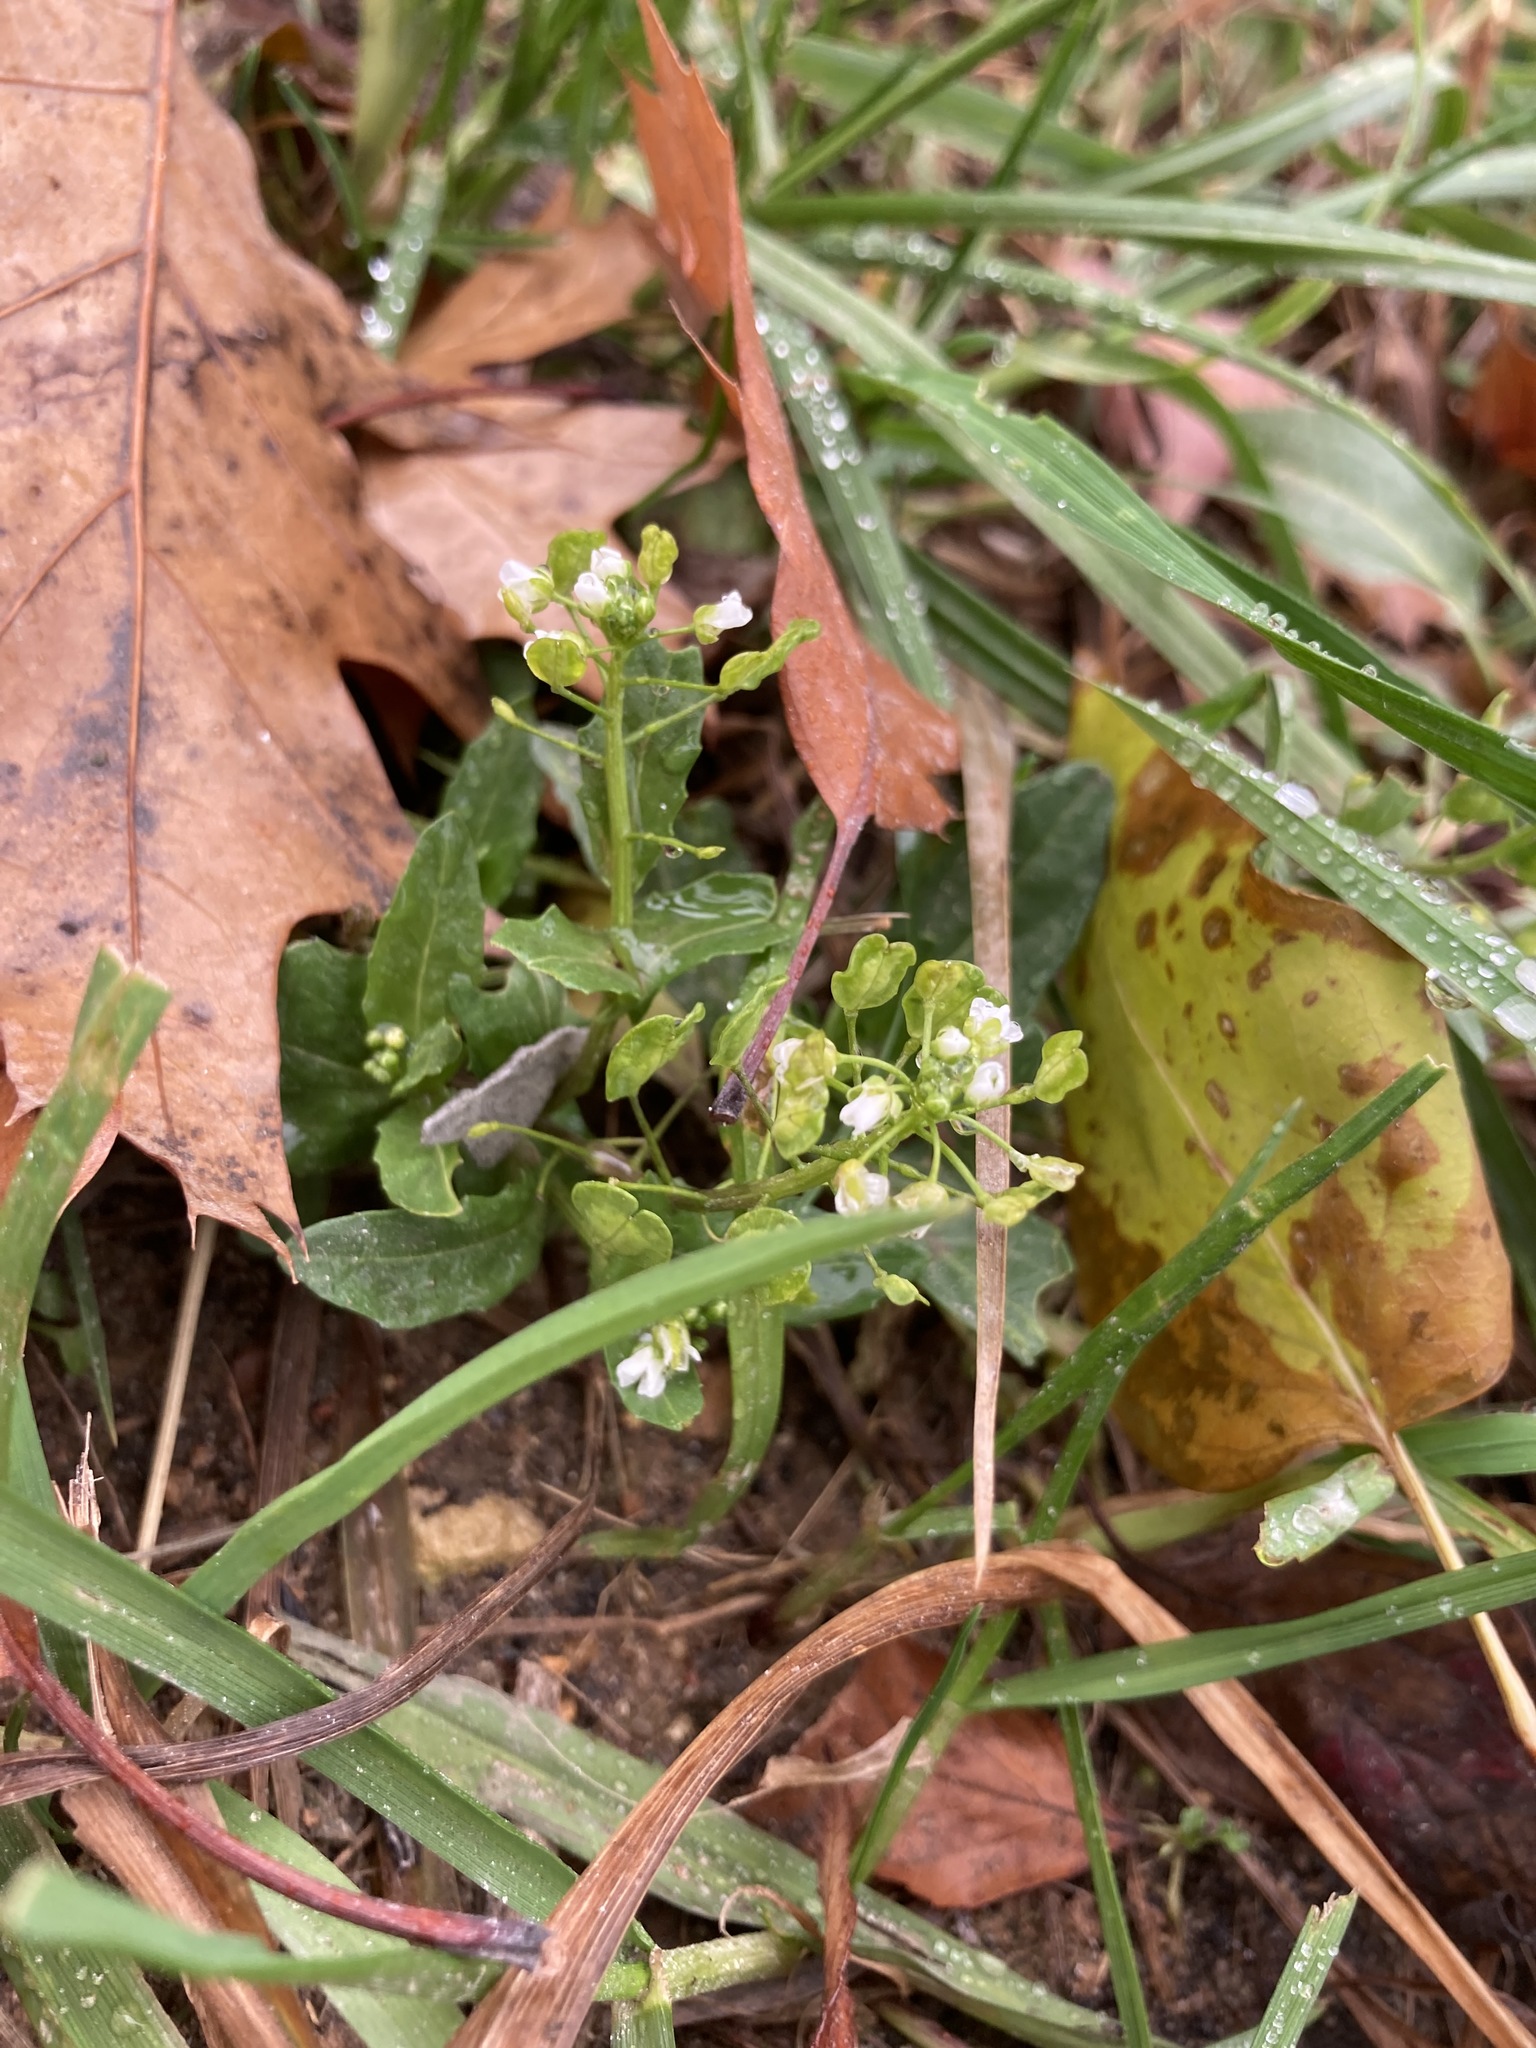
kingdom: Plantae
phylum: Tracheophyta
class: Magnoliopsida
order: Brassicales
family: Brassicaceae
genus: Thlaspi
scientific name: Thlaspi arvense
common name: Field pennycress
